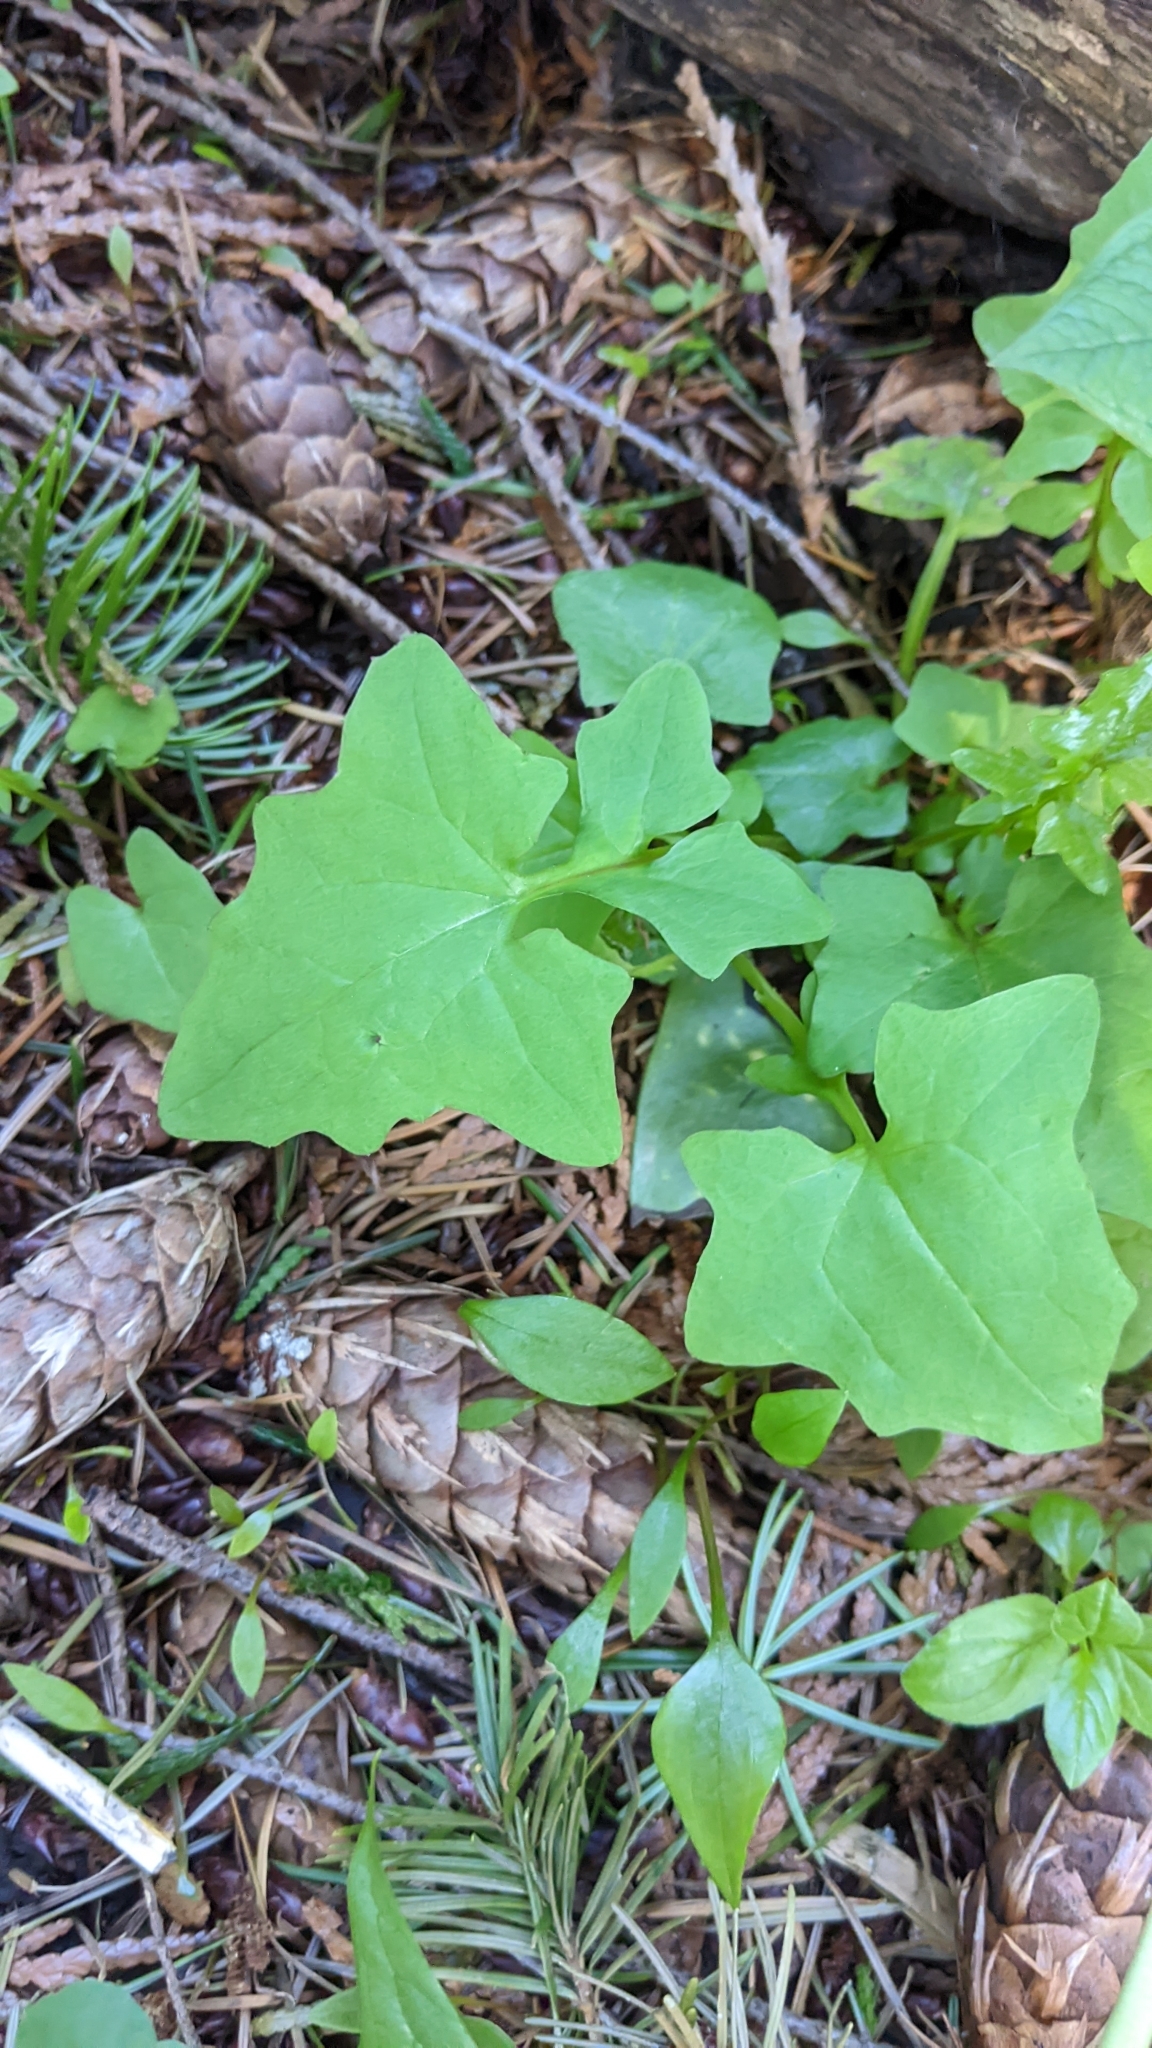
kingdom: Plantae
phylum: Tracheophyta
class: Magnoliopsida
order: Asterales
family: Asteraceae
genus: Mycelis
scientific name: Mycelis muralis
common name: Wall lettuce
